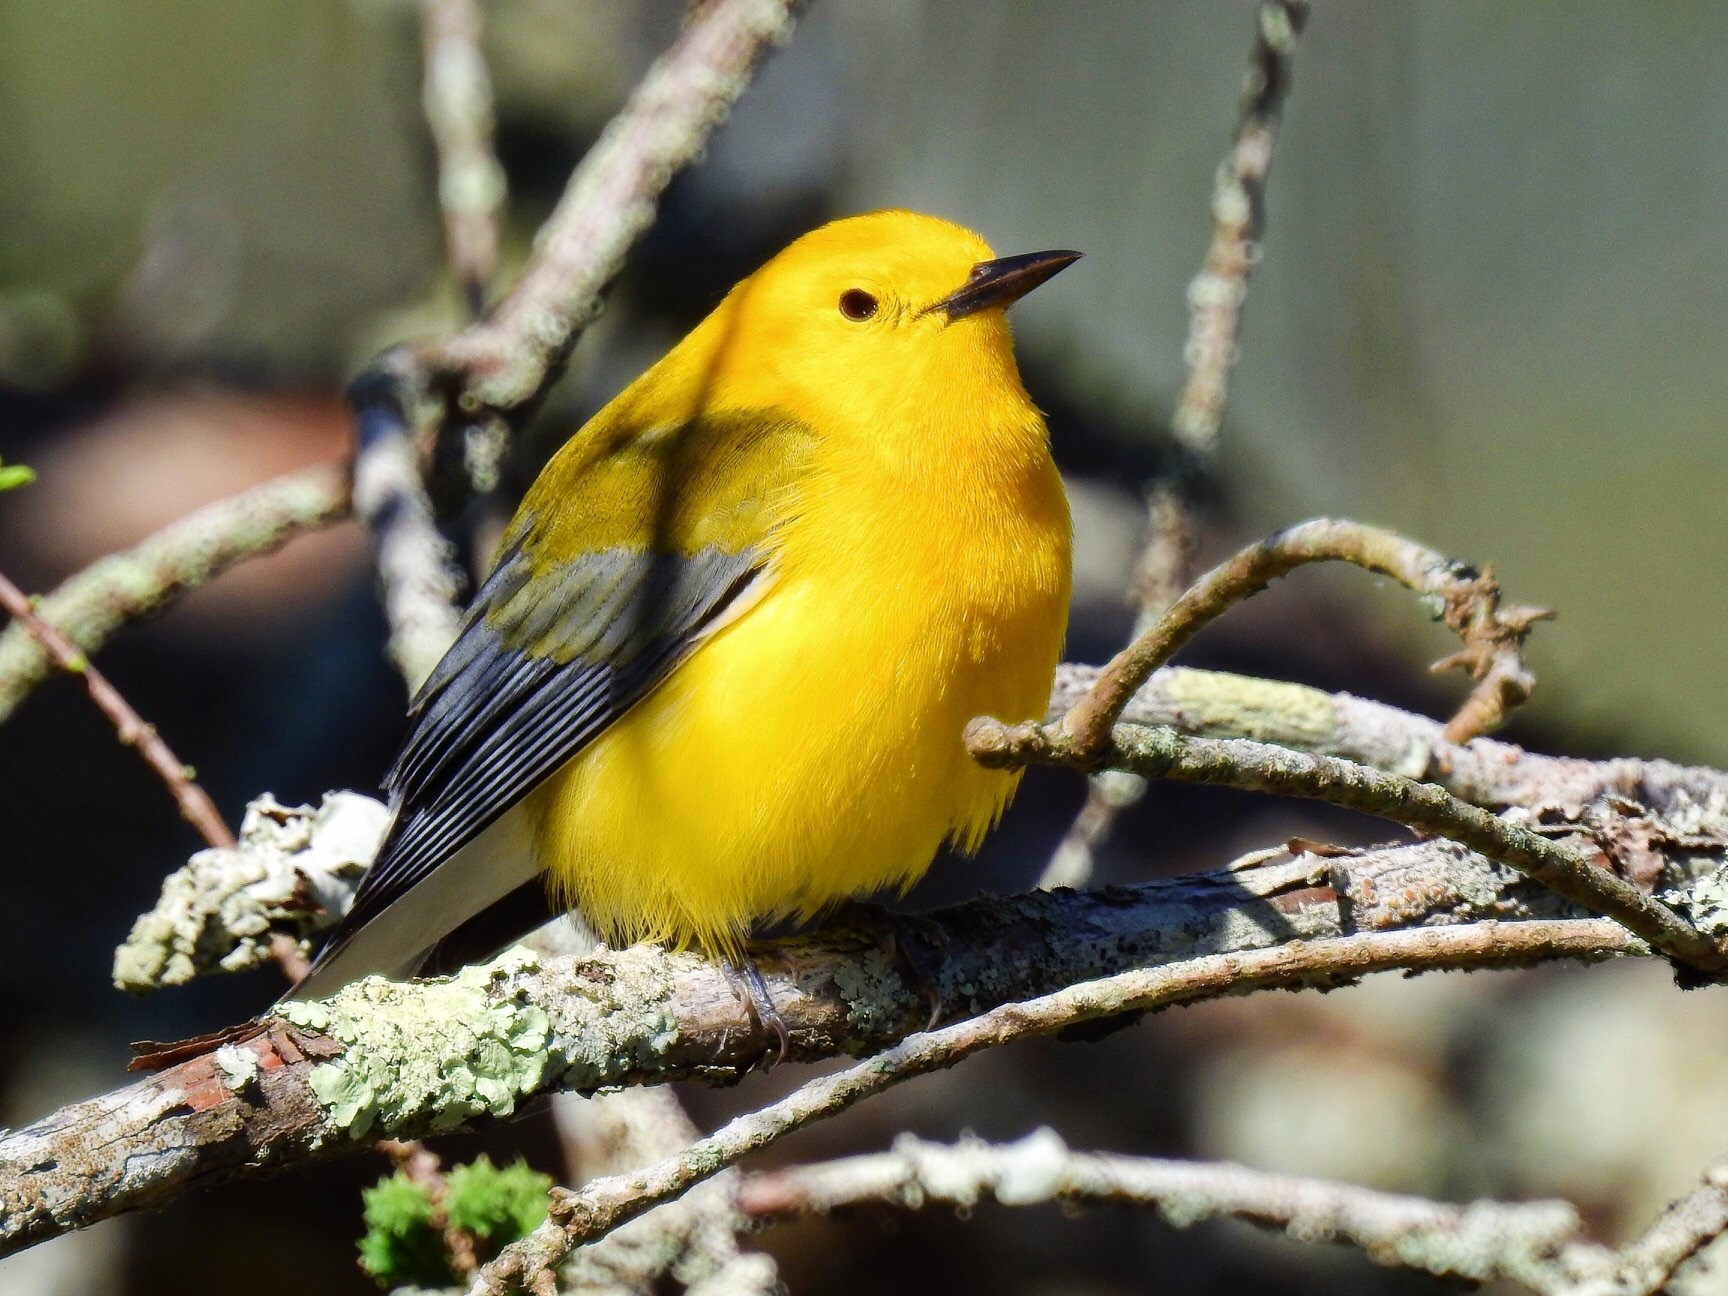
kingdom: Animalia
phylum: Chordata
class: Aves
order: Passeriformes
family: Parulidae
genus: Protonotaria
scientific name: Protonotaria citrea
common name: Prothonotary warbler
